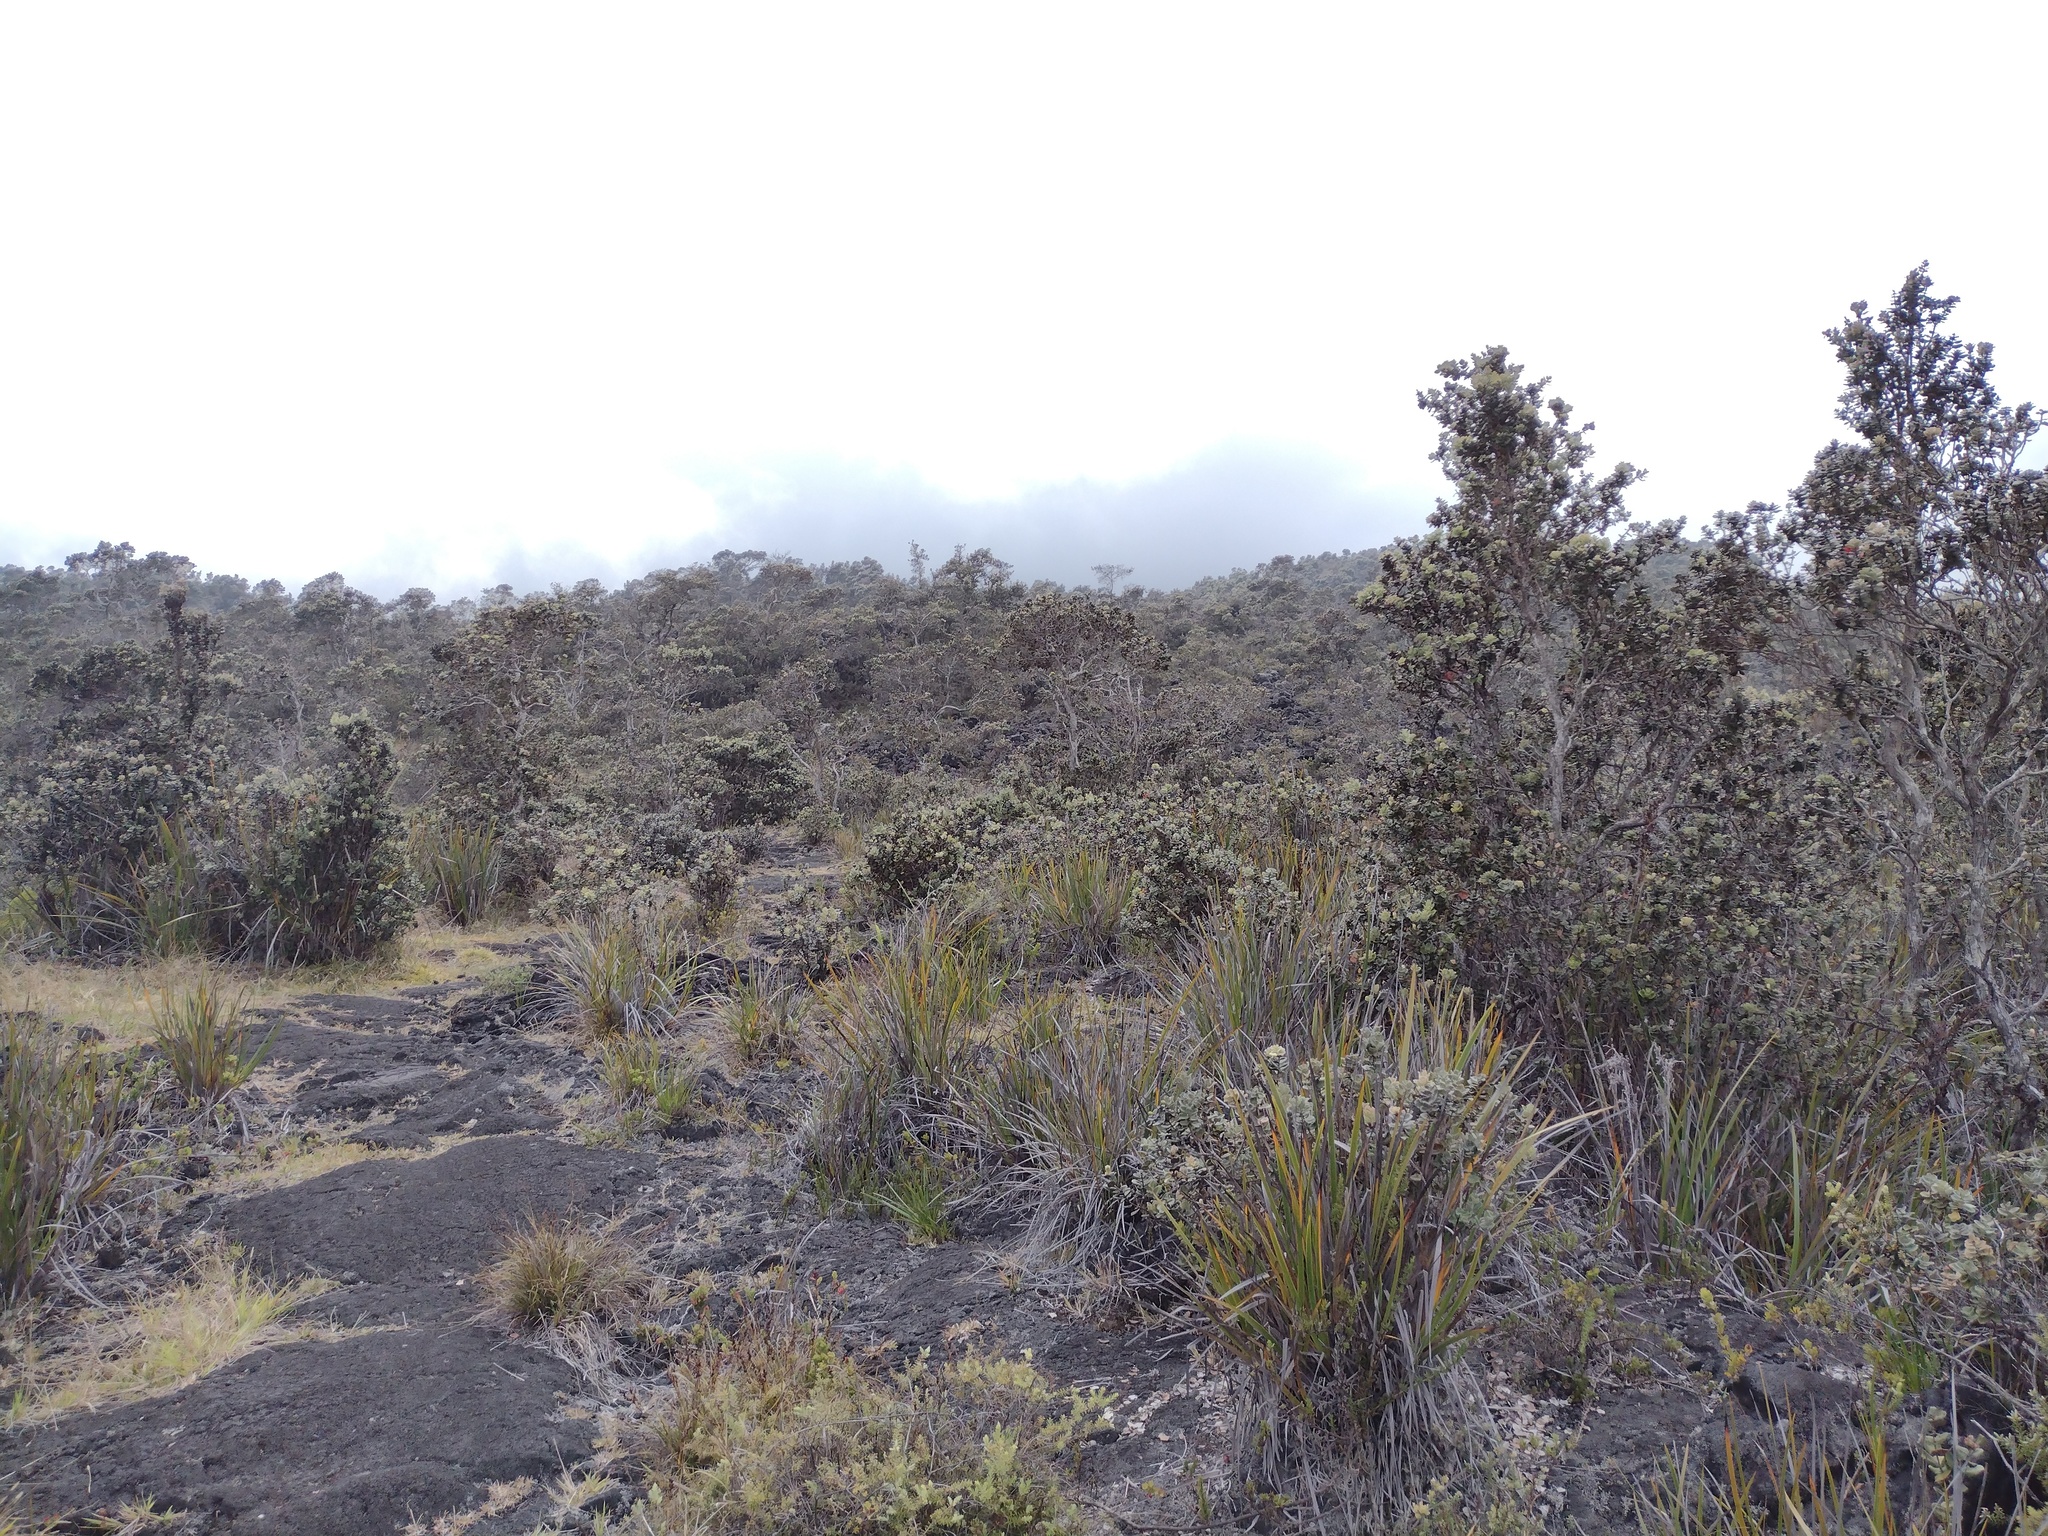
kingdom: Plantae
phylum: Tracheophyta
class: Magnoliopsida
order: Myrtales
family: Myrtaceae
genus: Metrosideros
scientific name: Metrosideros polymorpha
